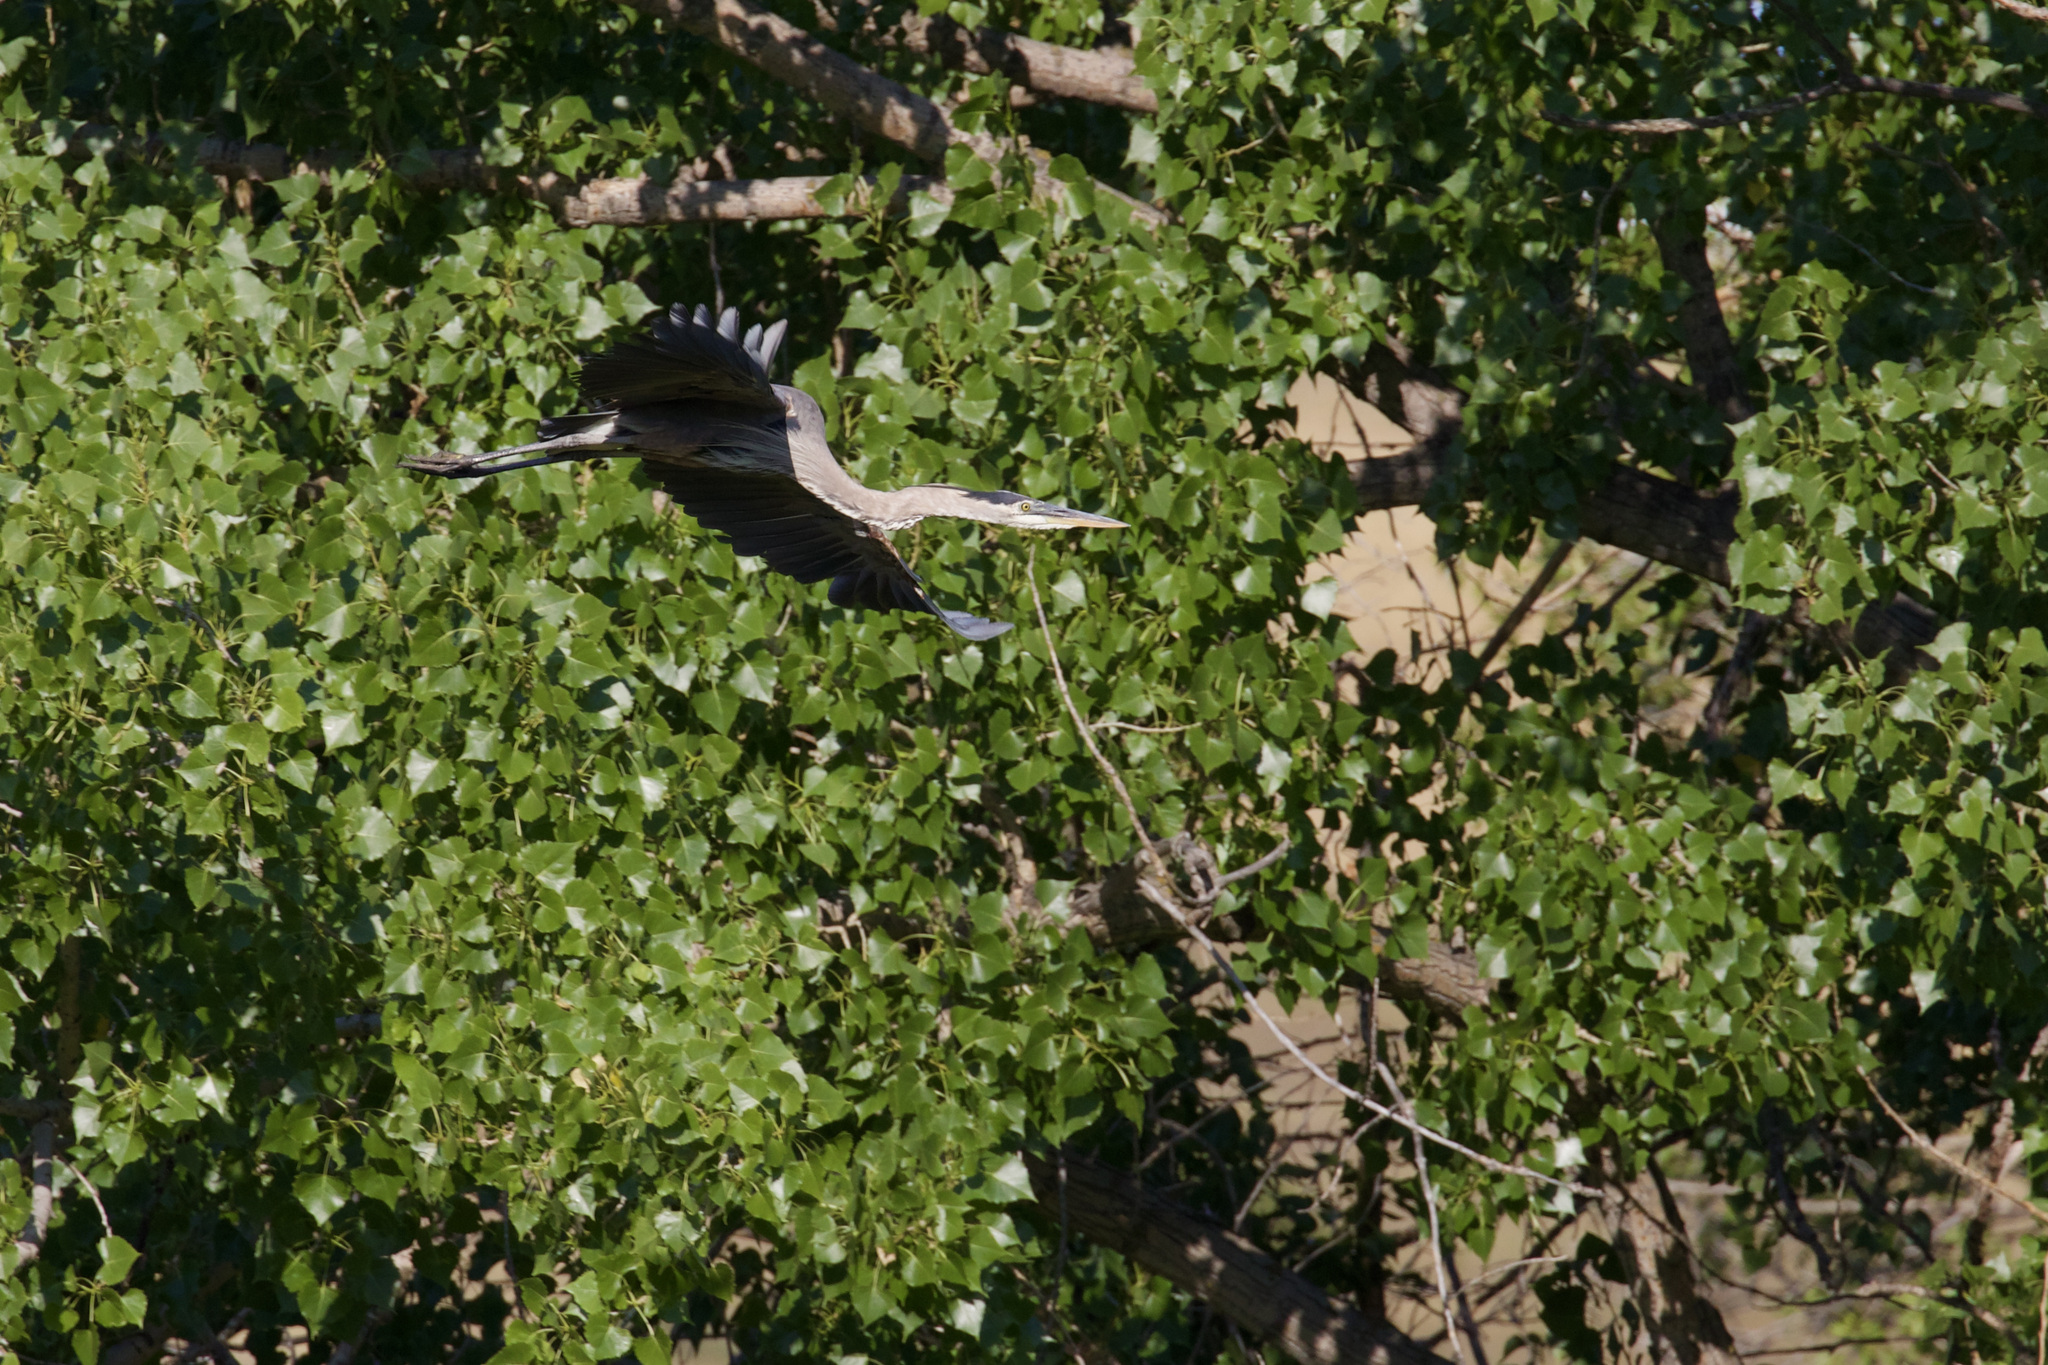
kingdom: Animalia
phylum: Chordata
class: Aves
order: Pelecaniformes
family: Ardeidae
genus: Ardea
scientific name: Ardea herodias
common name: Great blue heron
